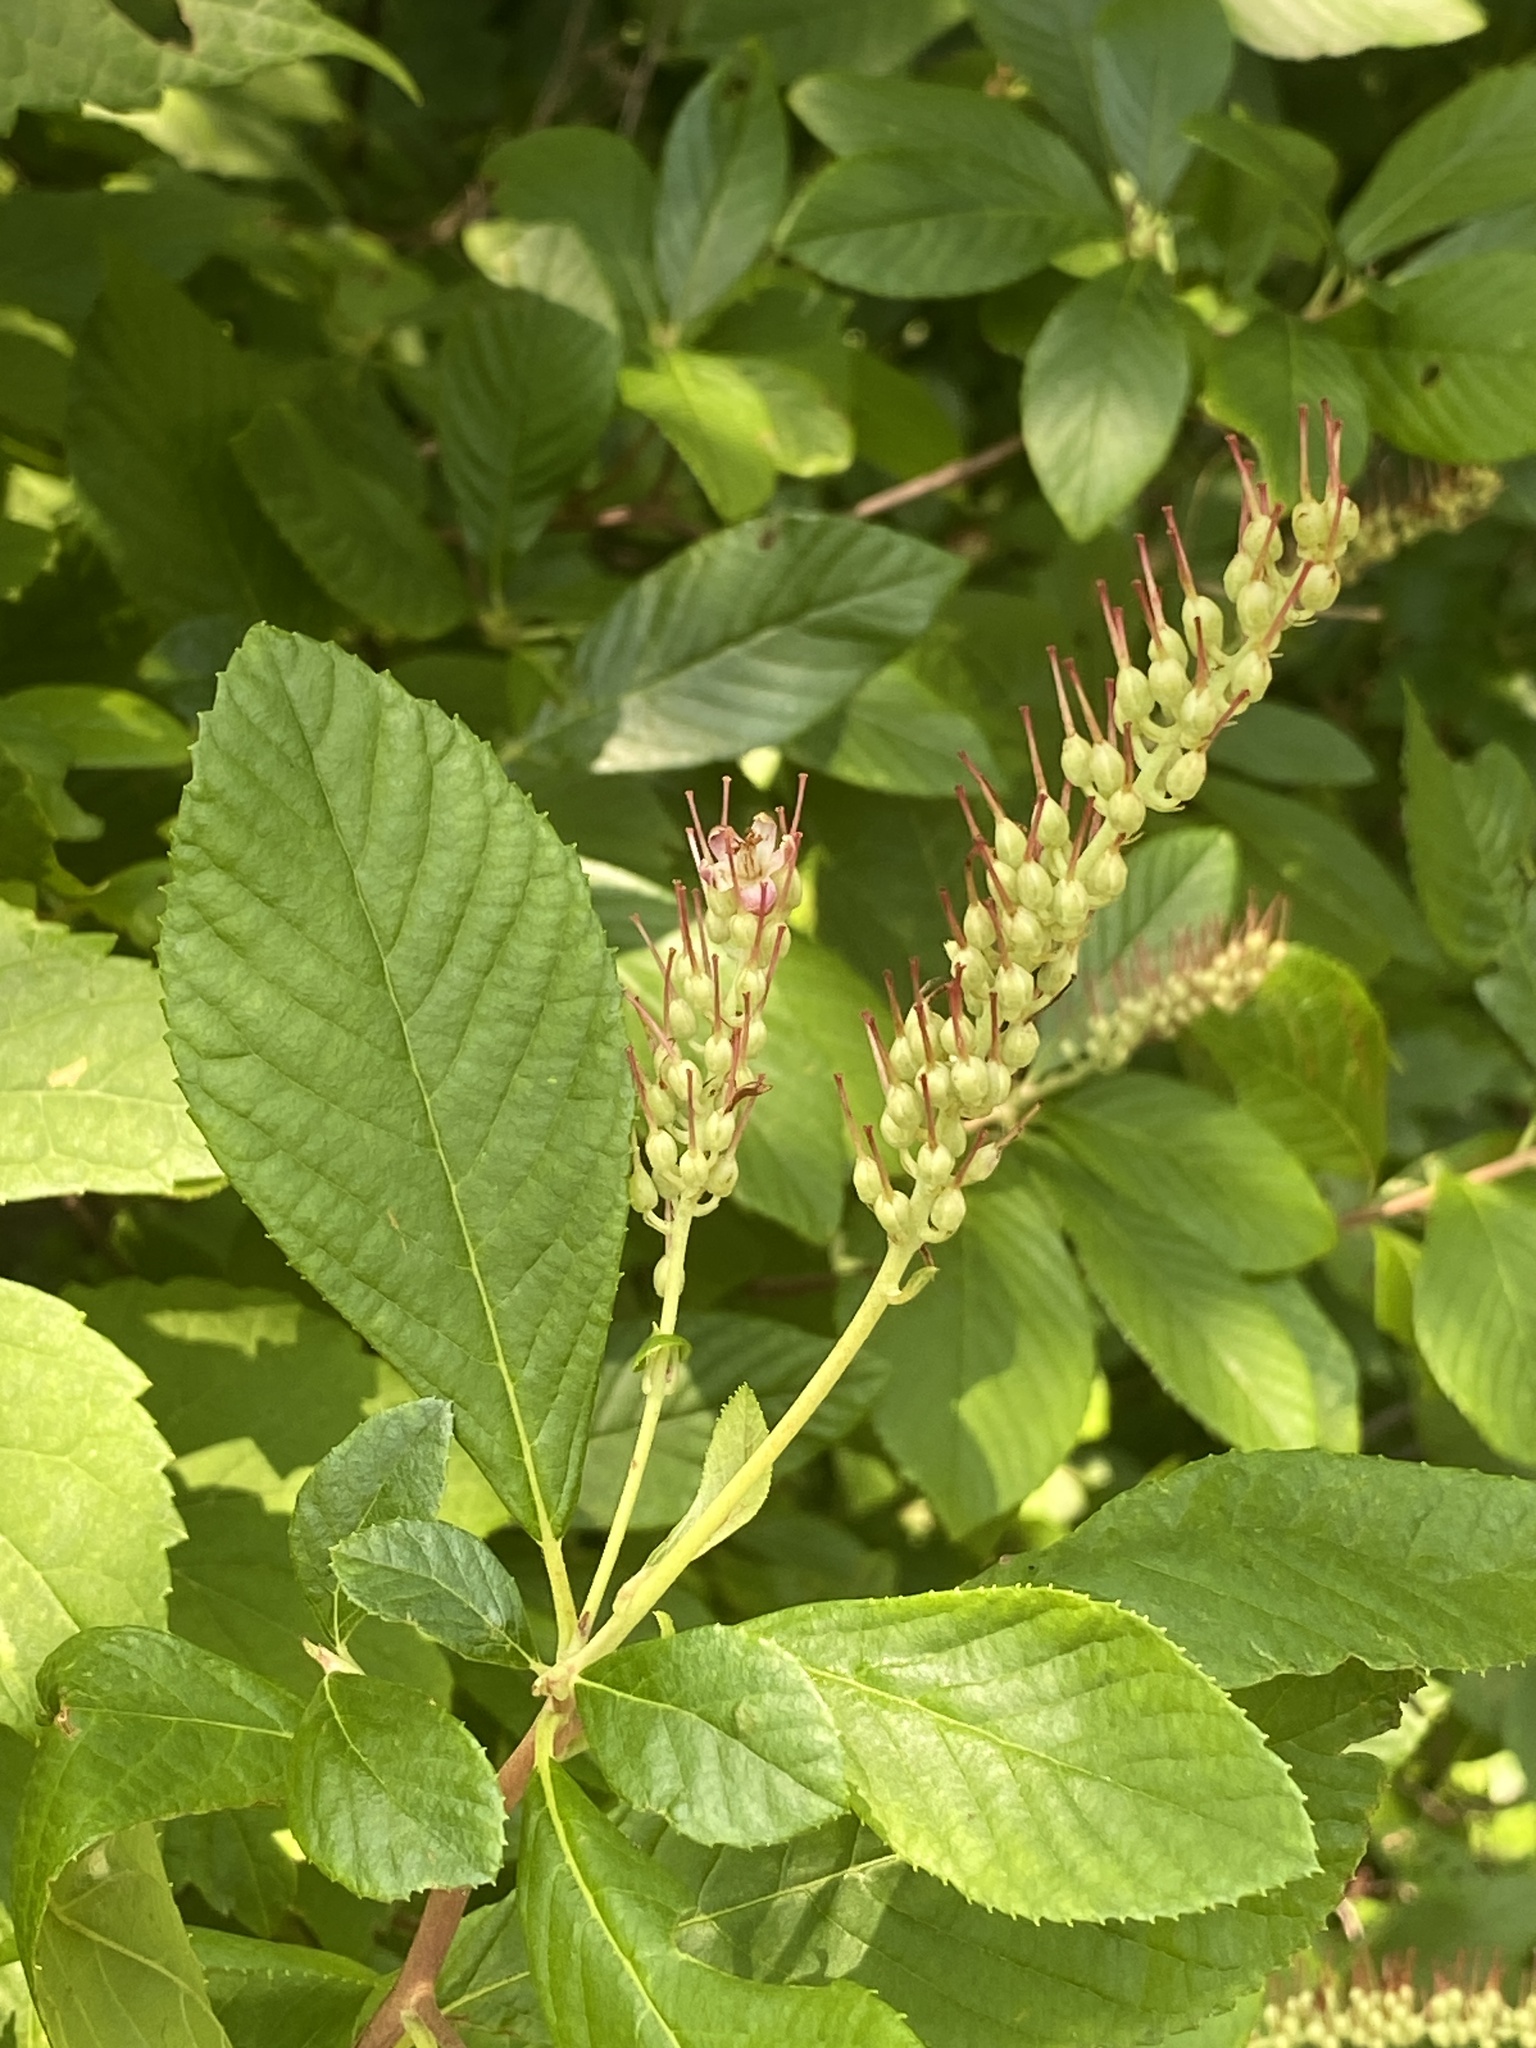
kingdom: Plantae
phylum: Tracheophyta
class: Magnoliopsida
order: Ericales
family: Clethraceae
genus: Clethra
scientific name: Clethra alnifolia
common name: Sweet pepperbush
